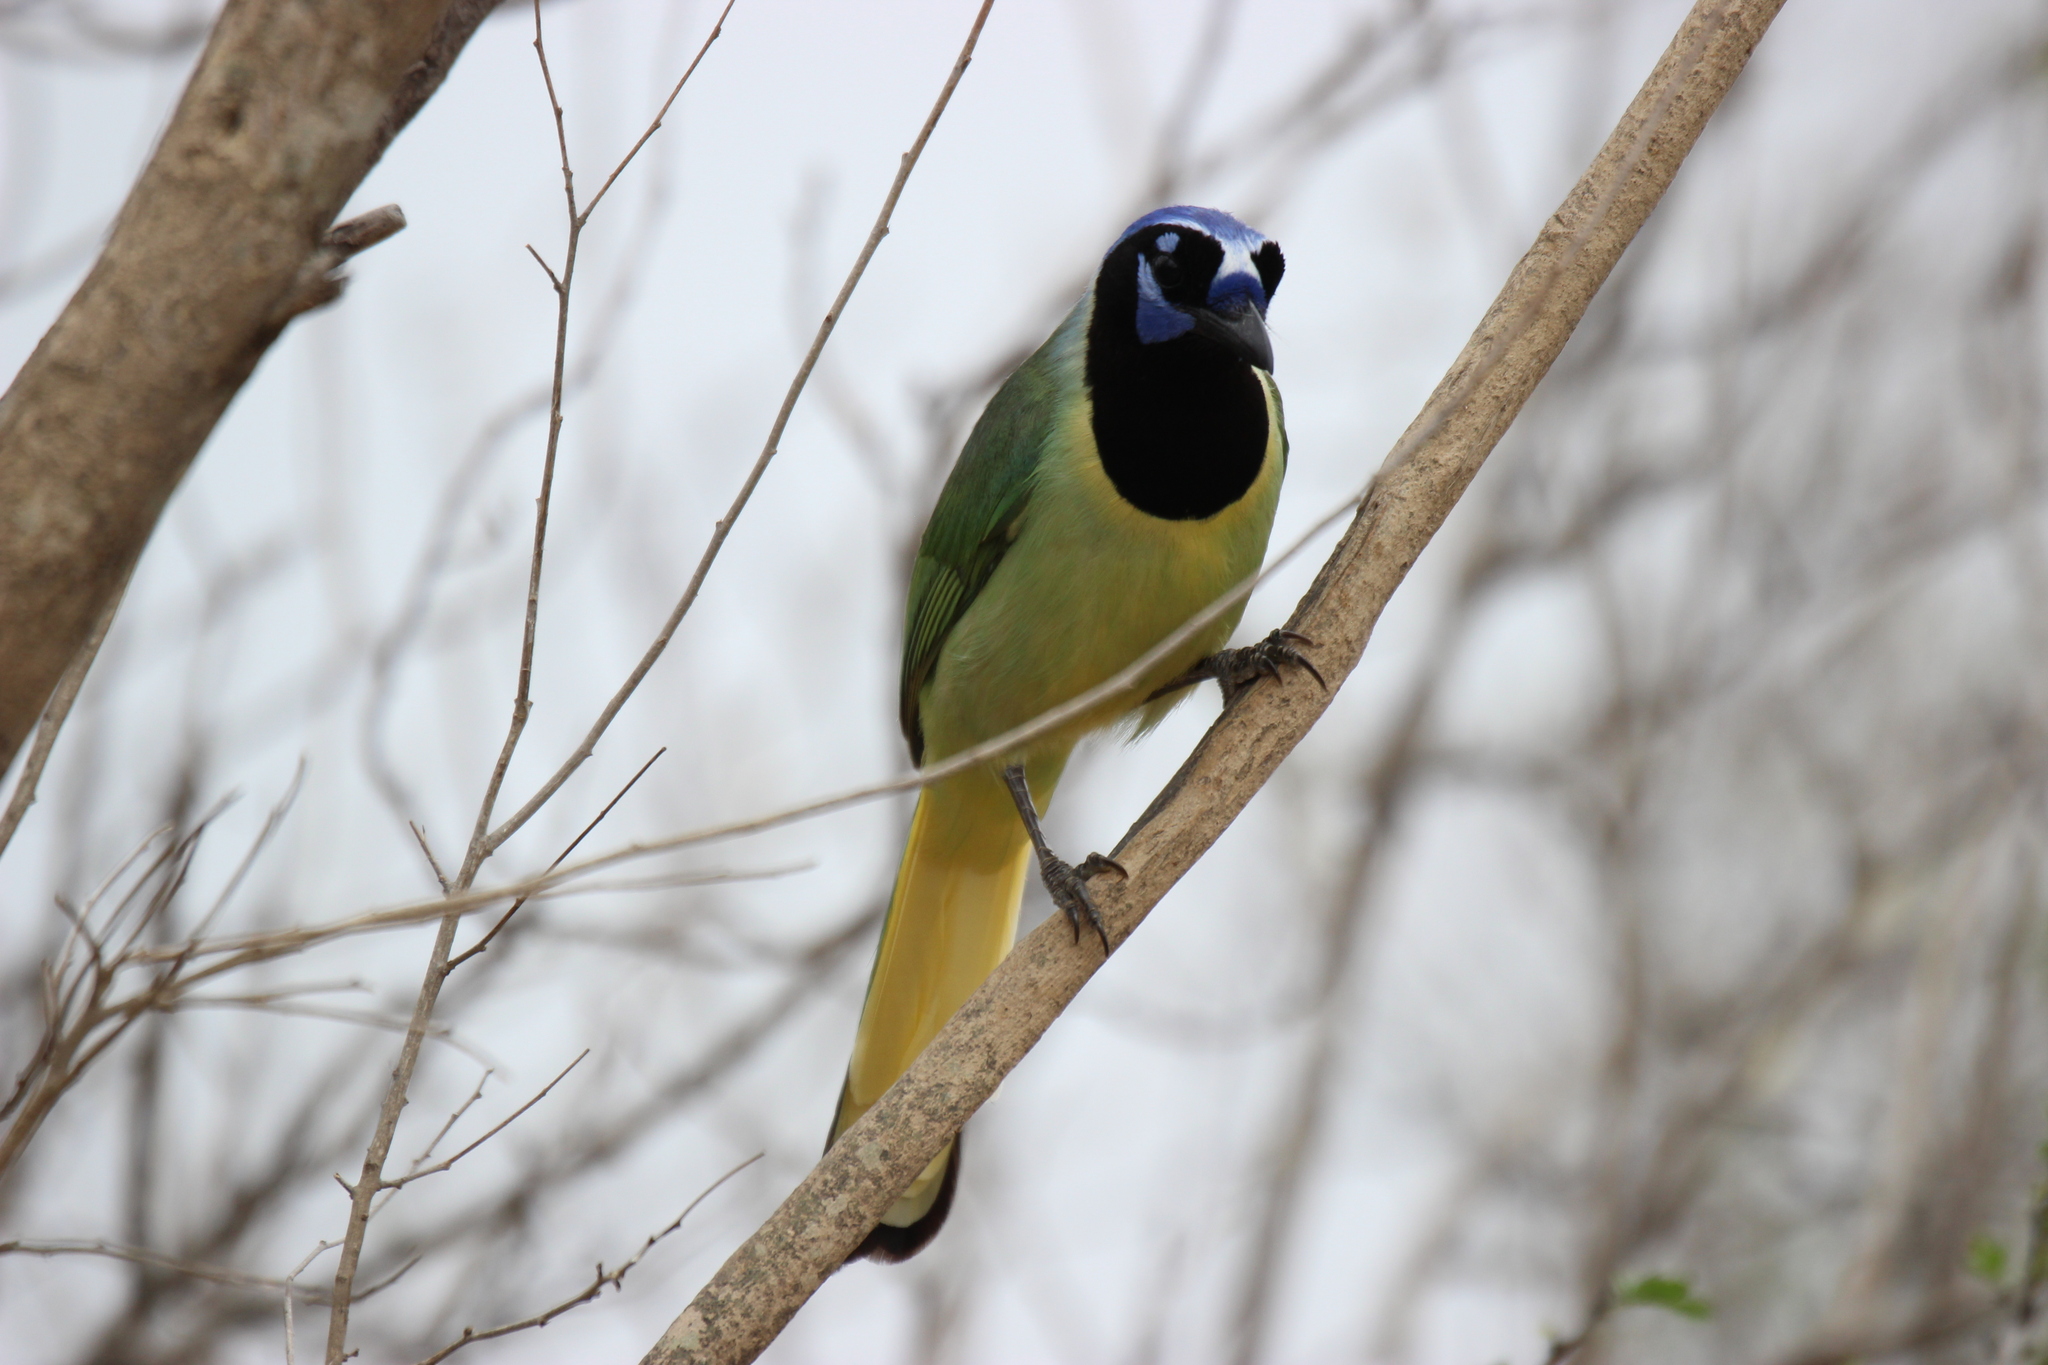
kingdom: Animalia
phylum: Chordata
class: Aves
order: Passeriformes
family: Corvidae
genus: Cyanocorax
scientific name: Cyanocorax yncas
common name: Green jay
